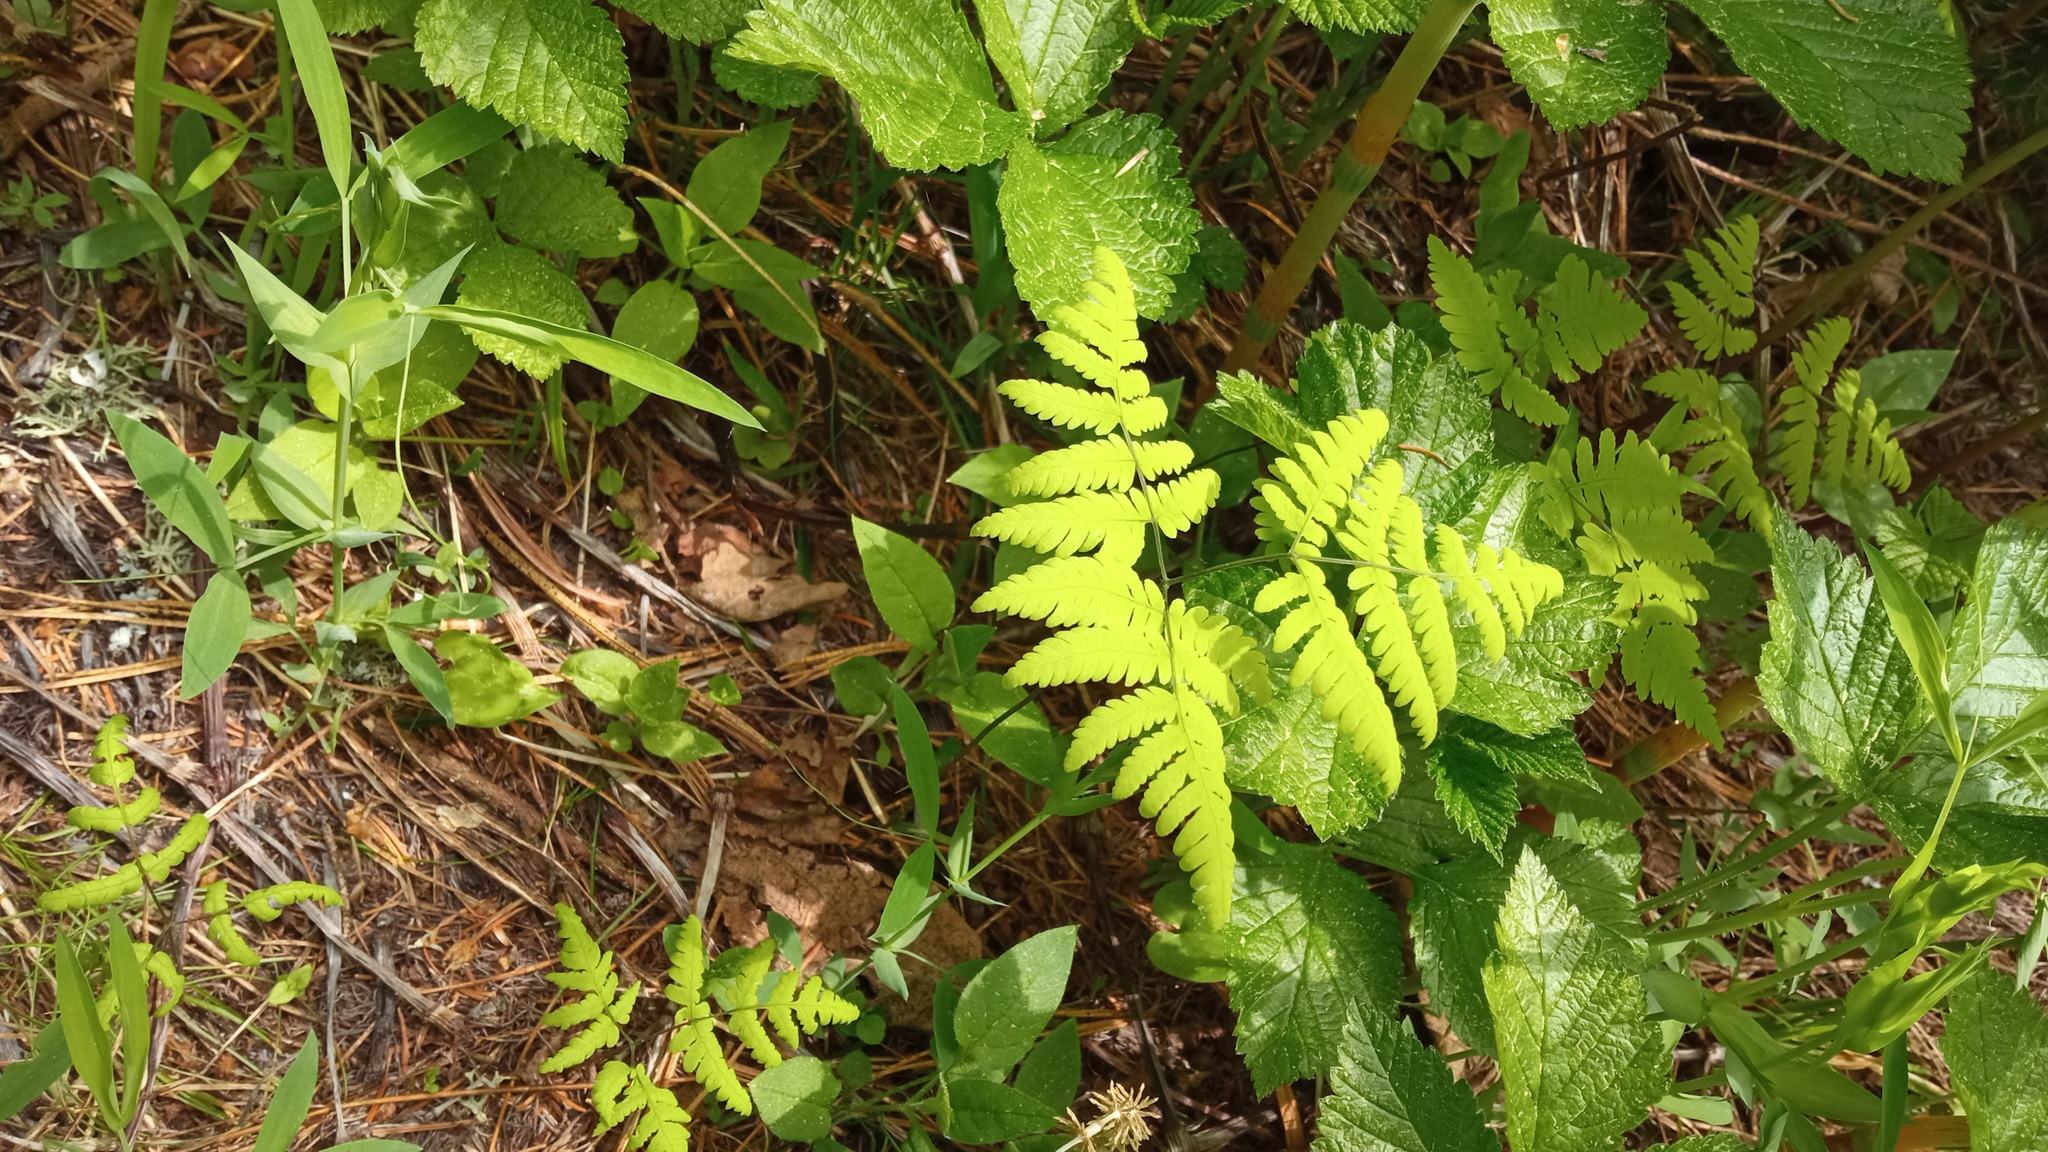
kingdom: Plantae
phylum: Tracheophyta
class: Polypodiopsida
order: Polypodiales
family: Cystopteridaceae
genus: Gymnocarpium
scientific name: Gymnocarpium dryopteris
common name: Oak fern
